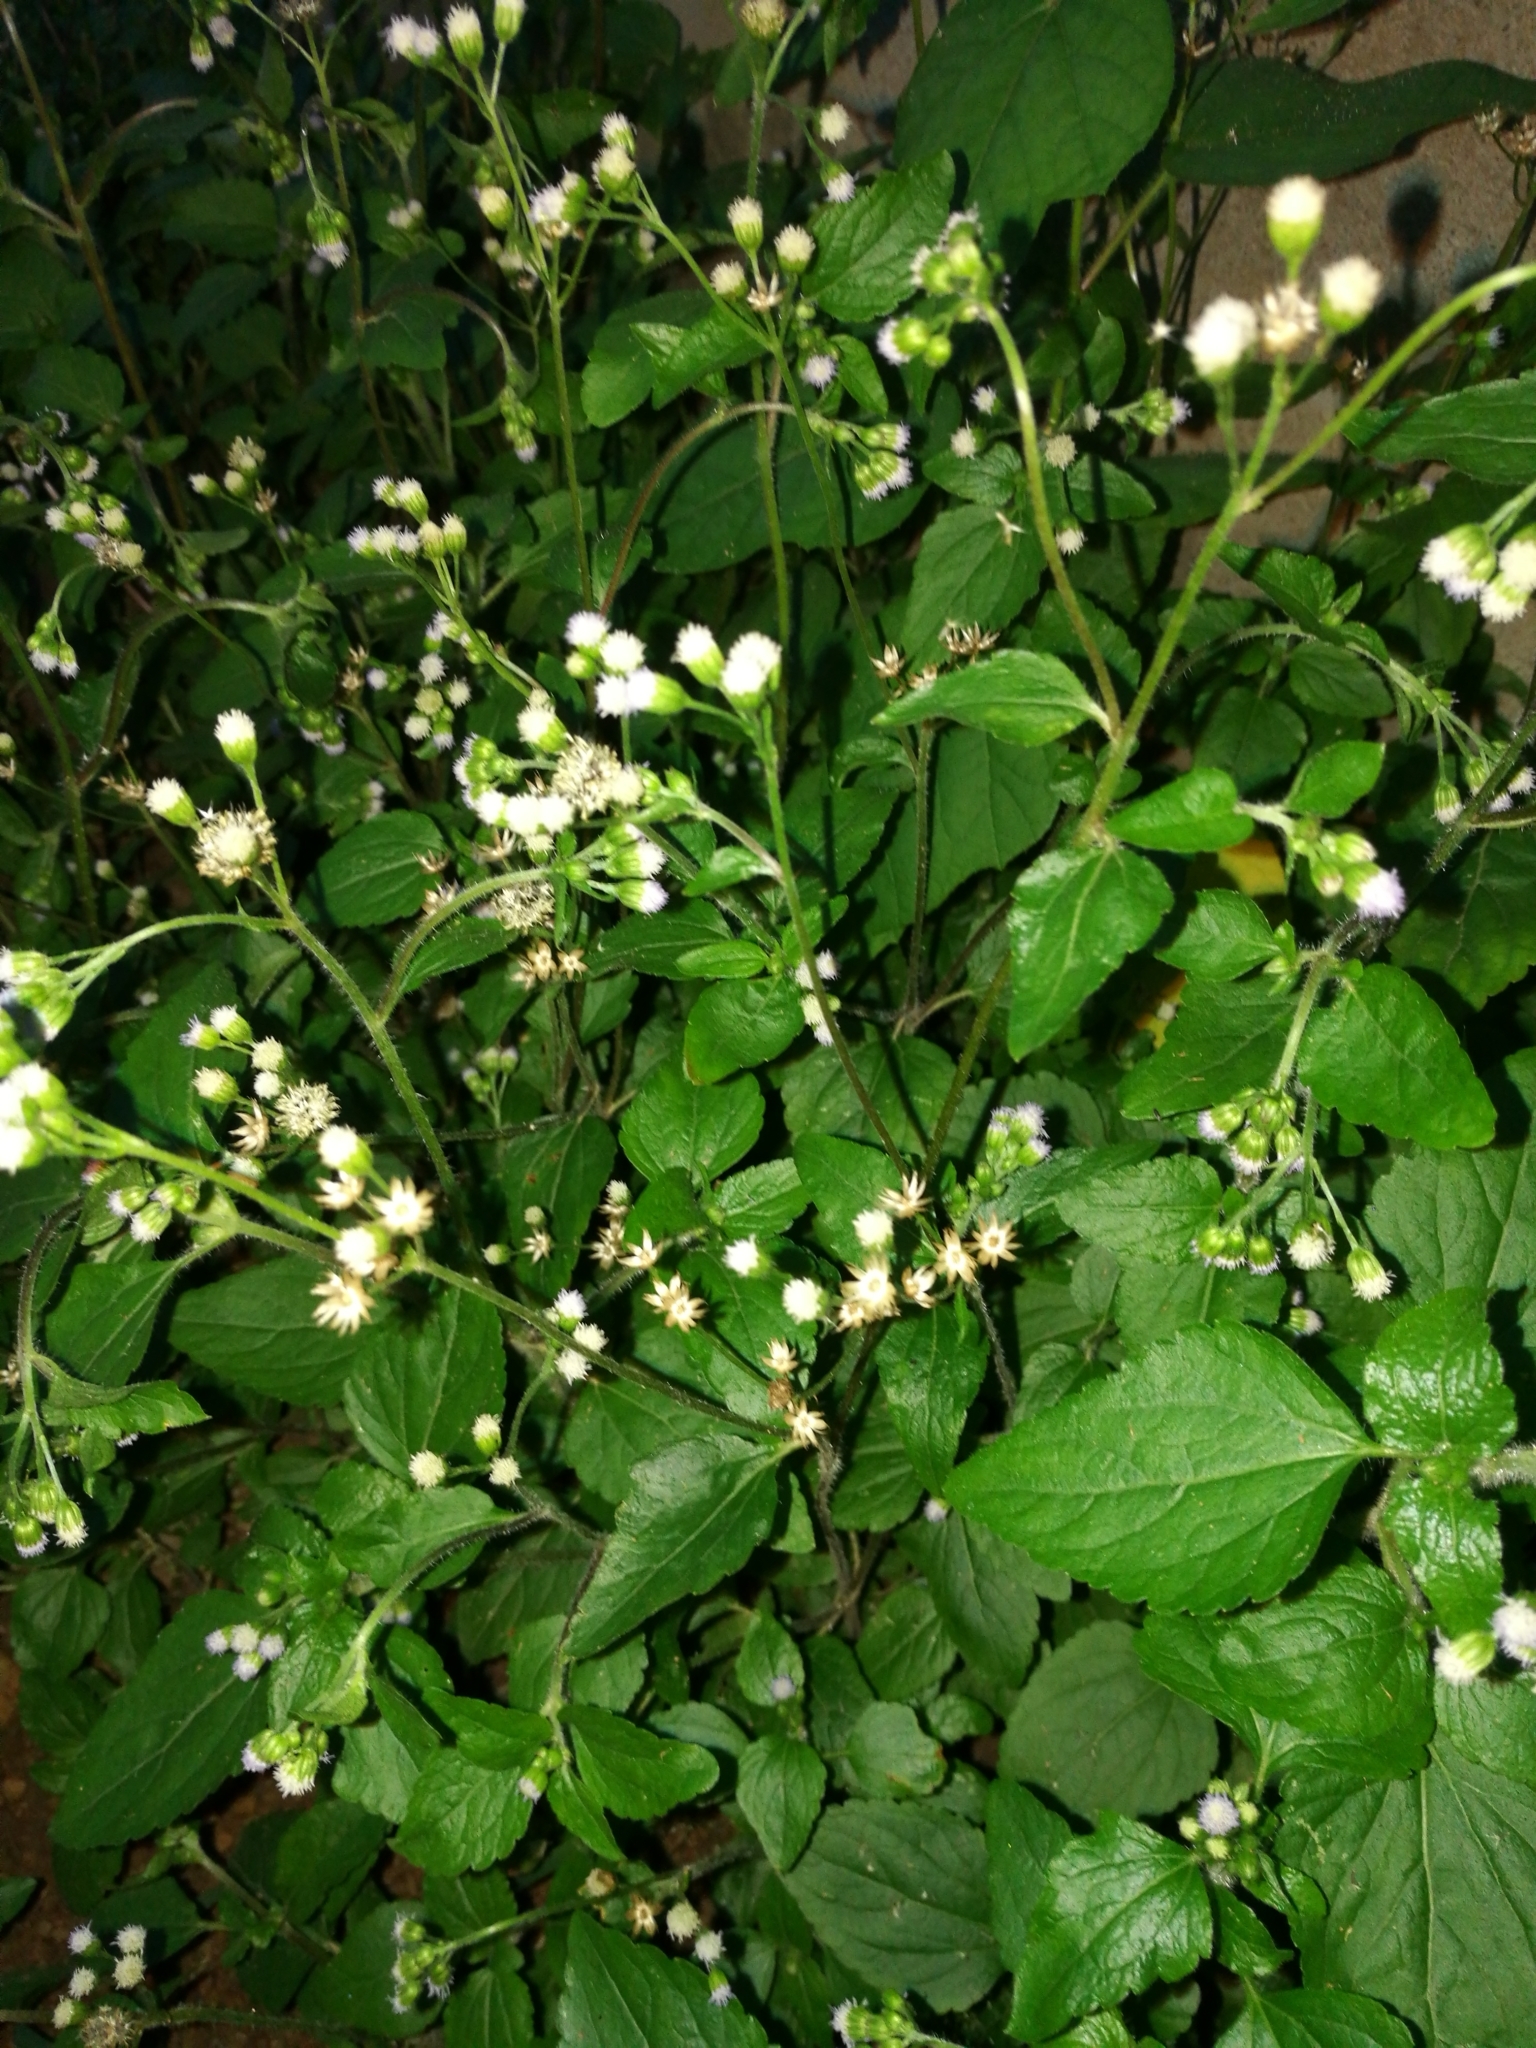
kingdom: Plantae
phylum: Tracheophyta
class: Magnoliopsida
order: Asterales
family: Asteraceae
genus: Ageratum
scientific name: Ageratum conyzoides
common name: Tropical whiteweed
